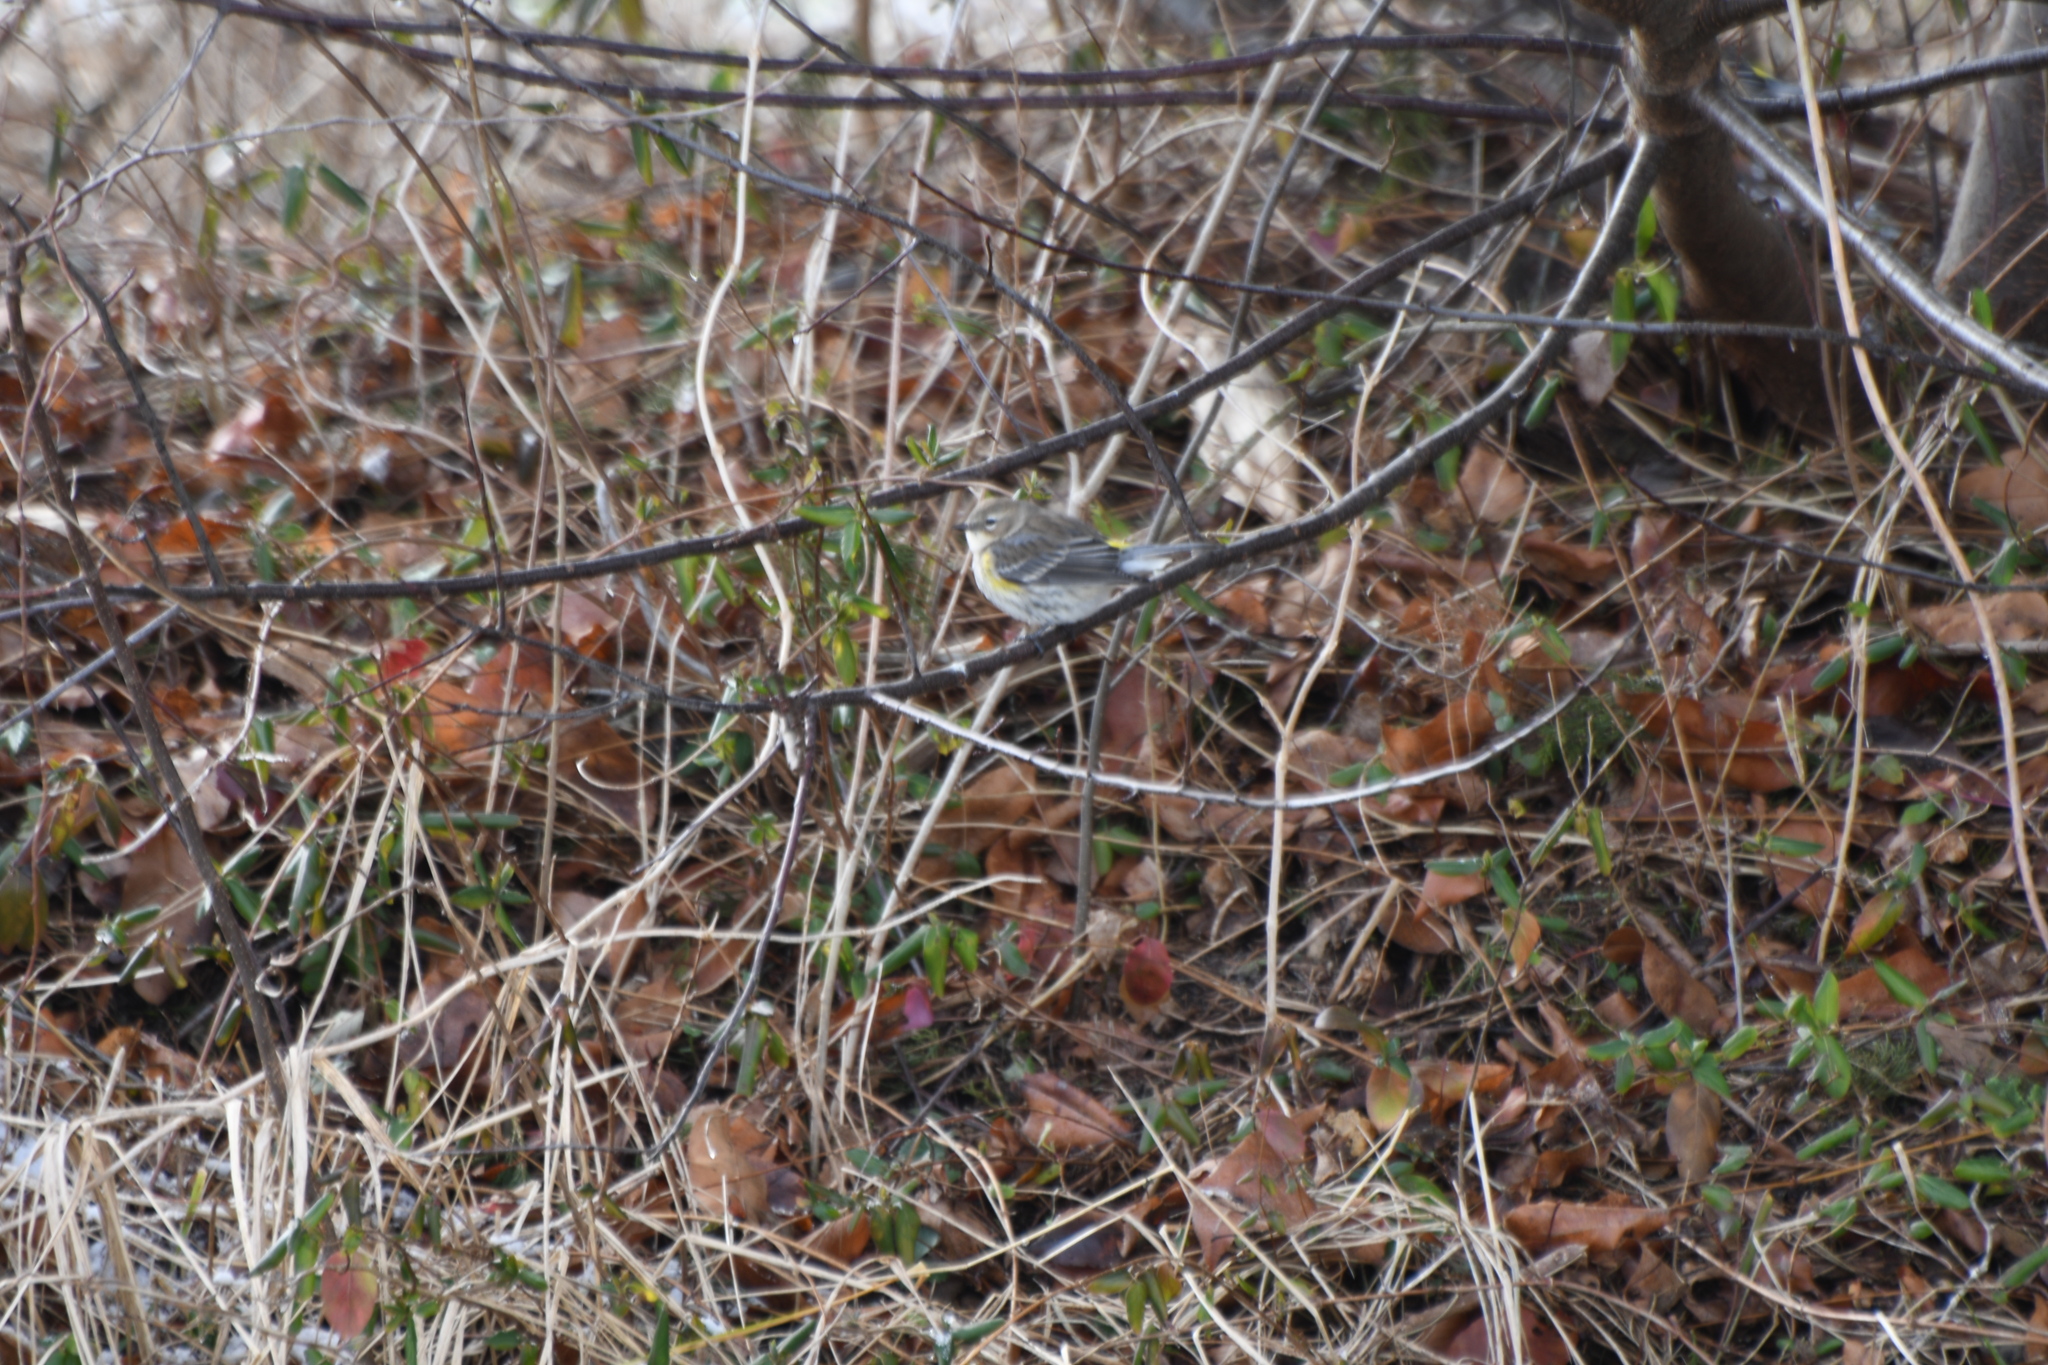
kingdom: Animalia
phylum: Chordata
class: Aves
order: Passeriformes
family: Parulidae
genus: Setophaga
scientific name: Setophaga coronata
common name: Myrtle warbler
